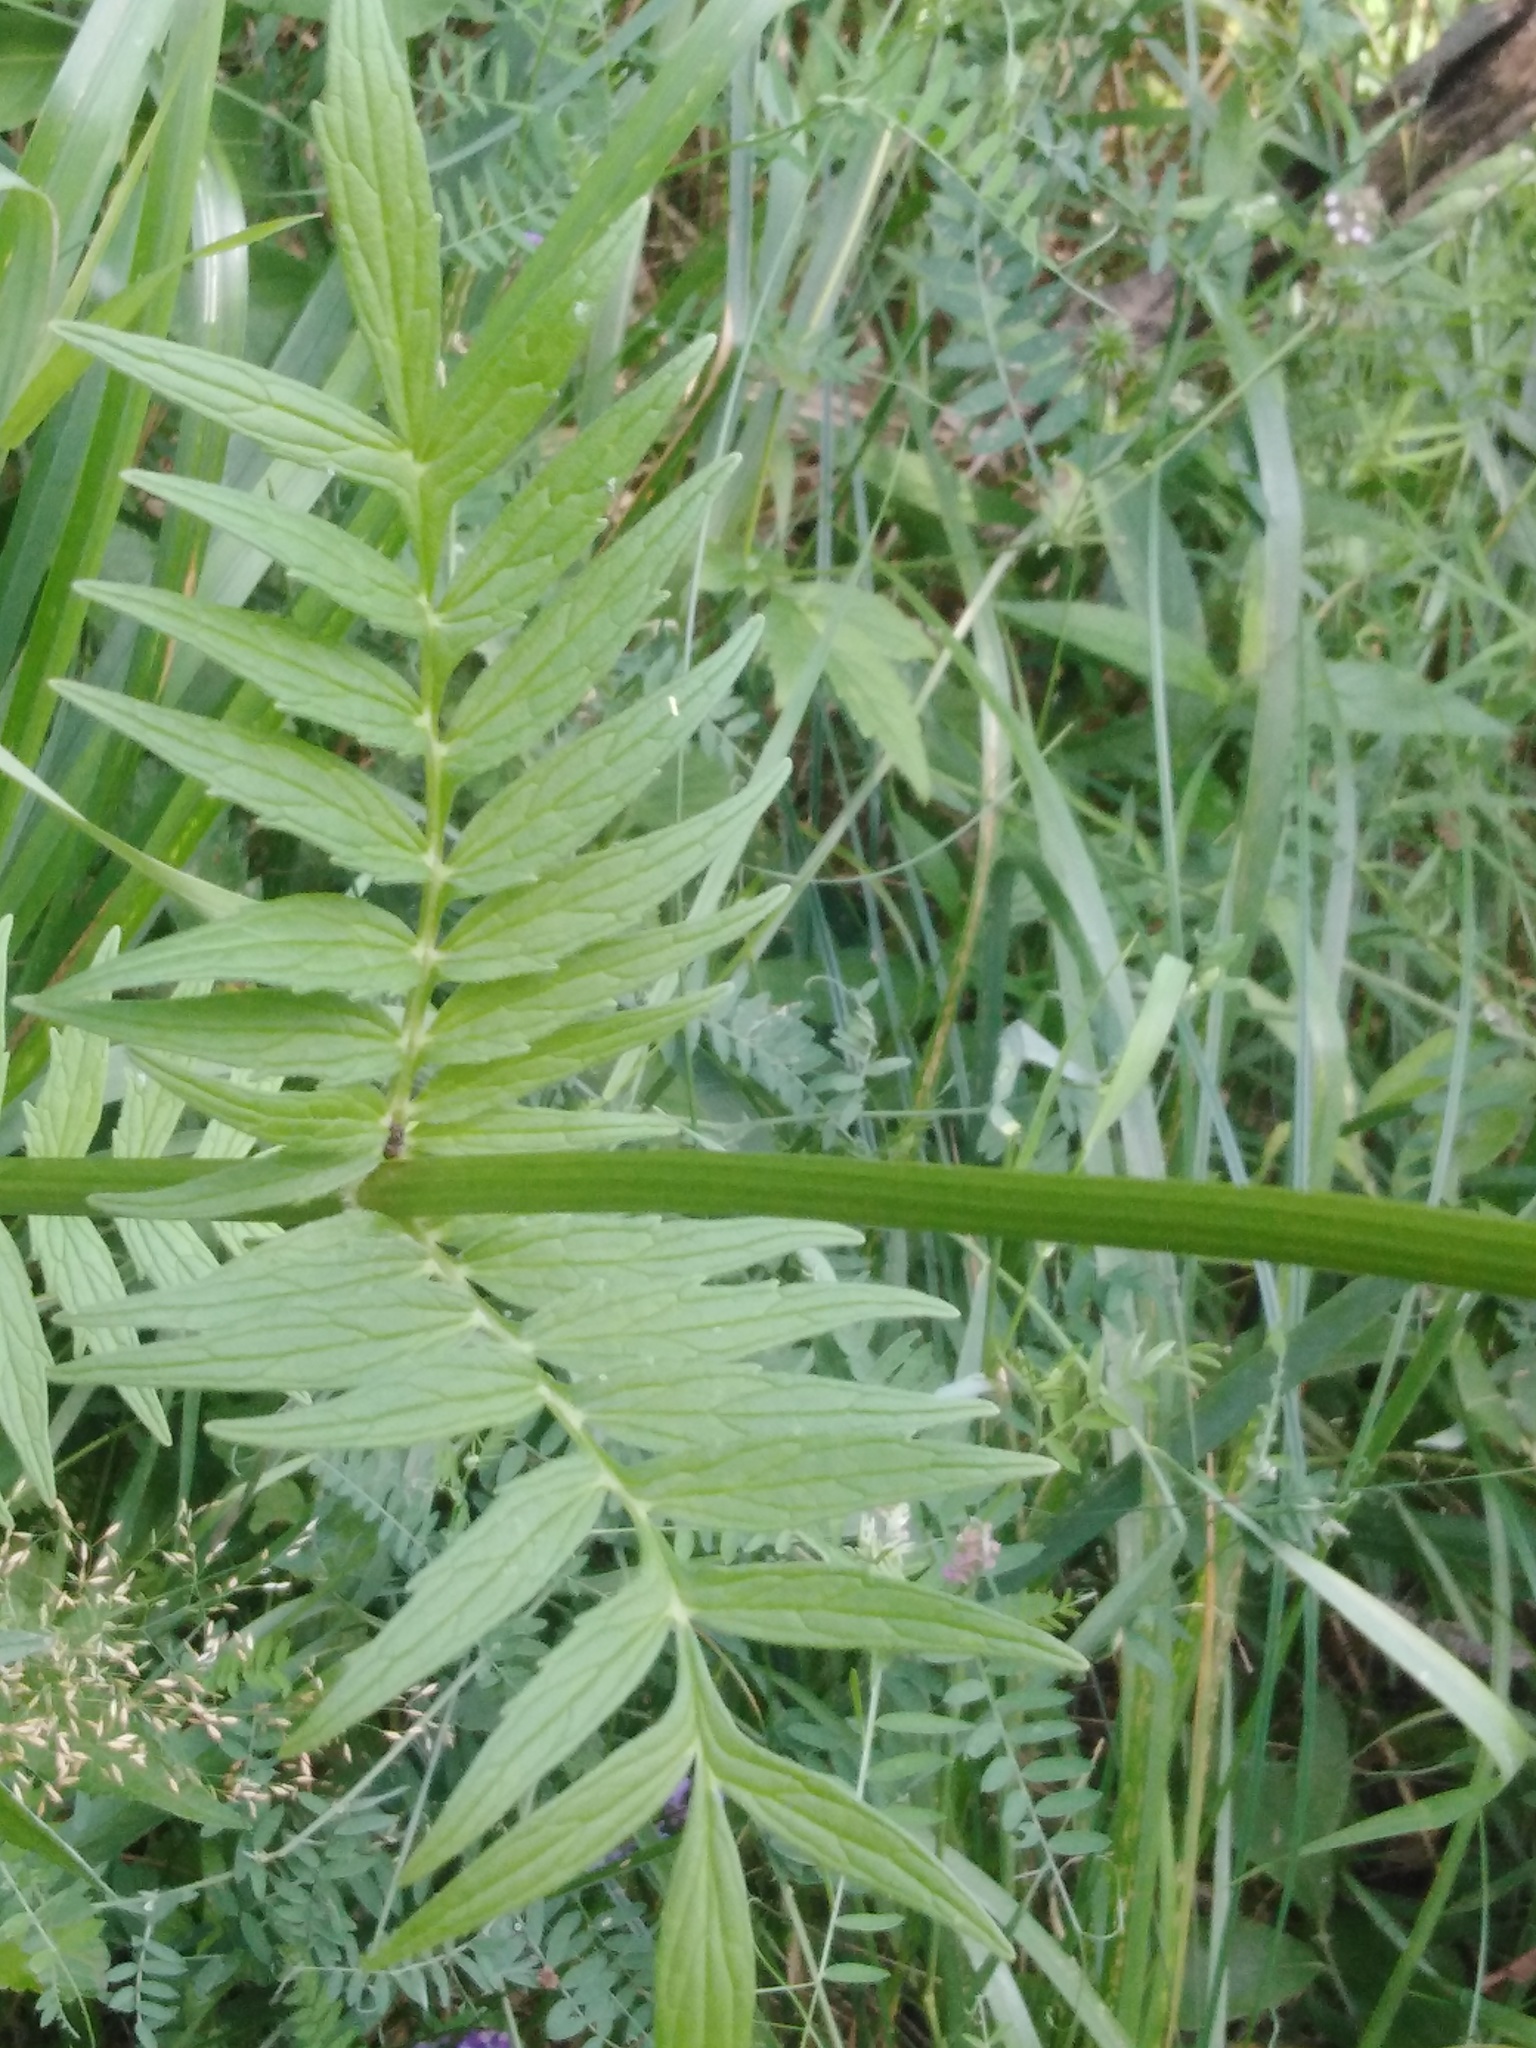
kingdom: Plantae
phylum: Tracheophyta
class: Magnoliopsida
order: Dipsacales
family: Caprifoliaceae
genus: Valeriana
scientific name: Valeriana officinalis
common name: Common valerian
